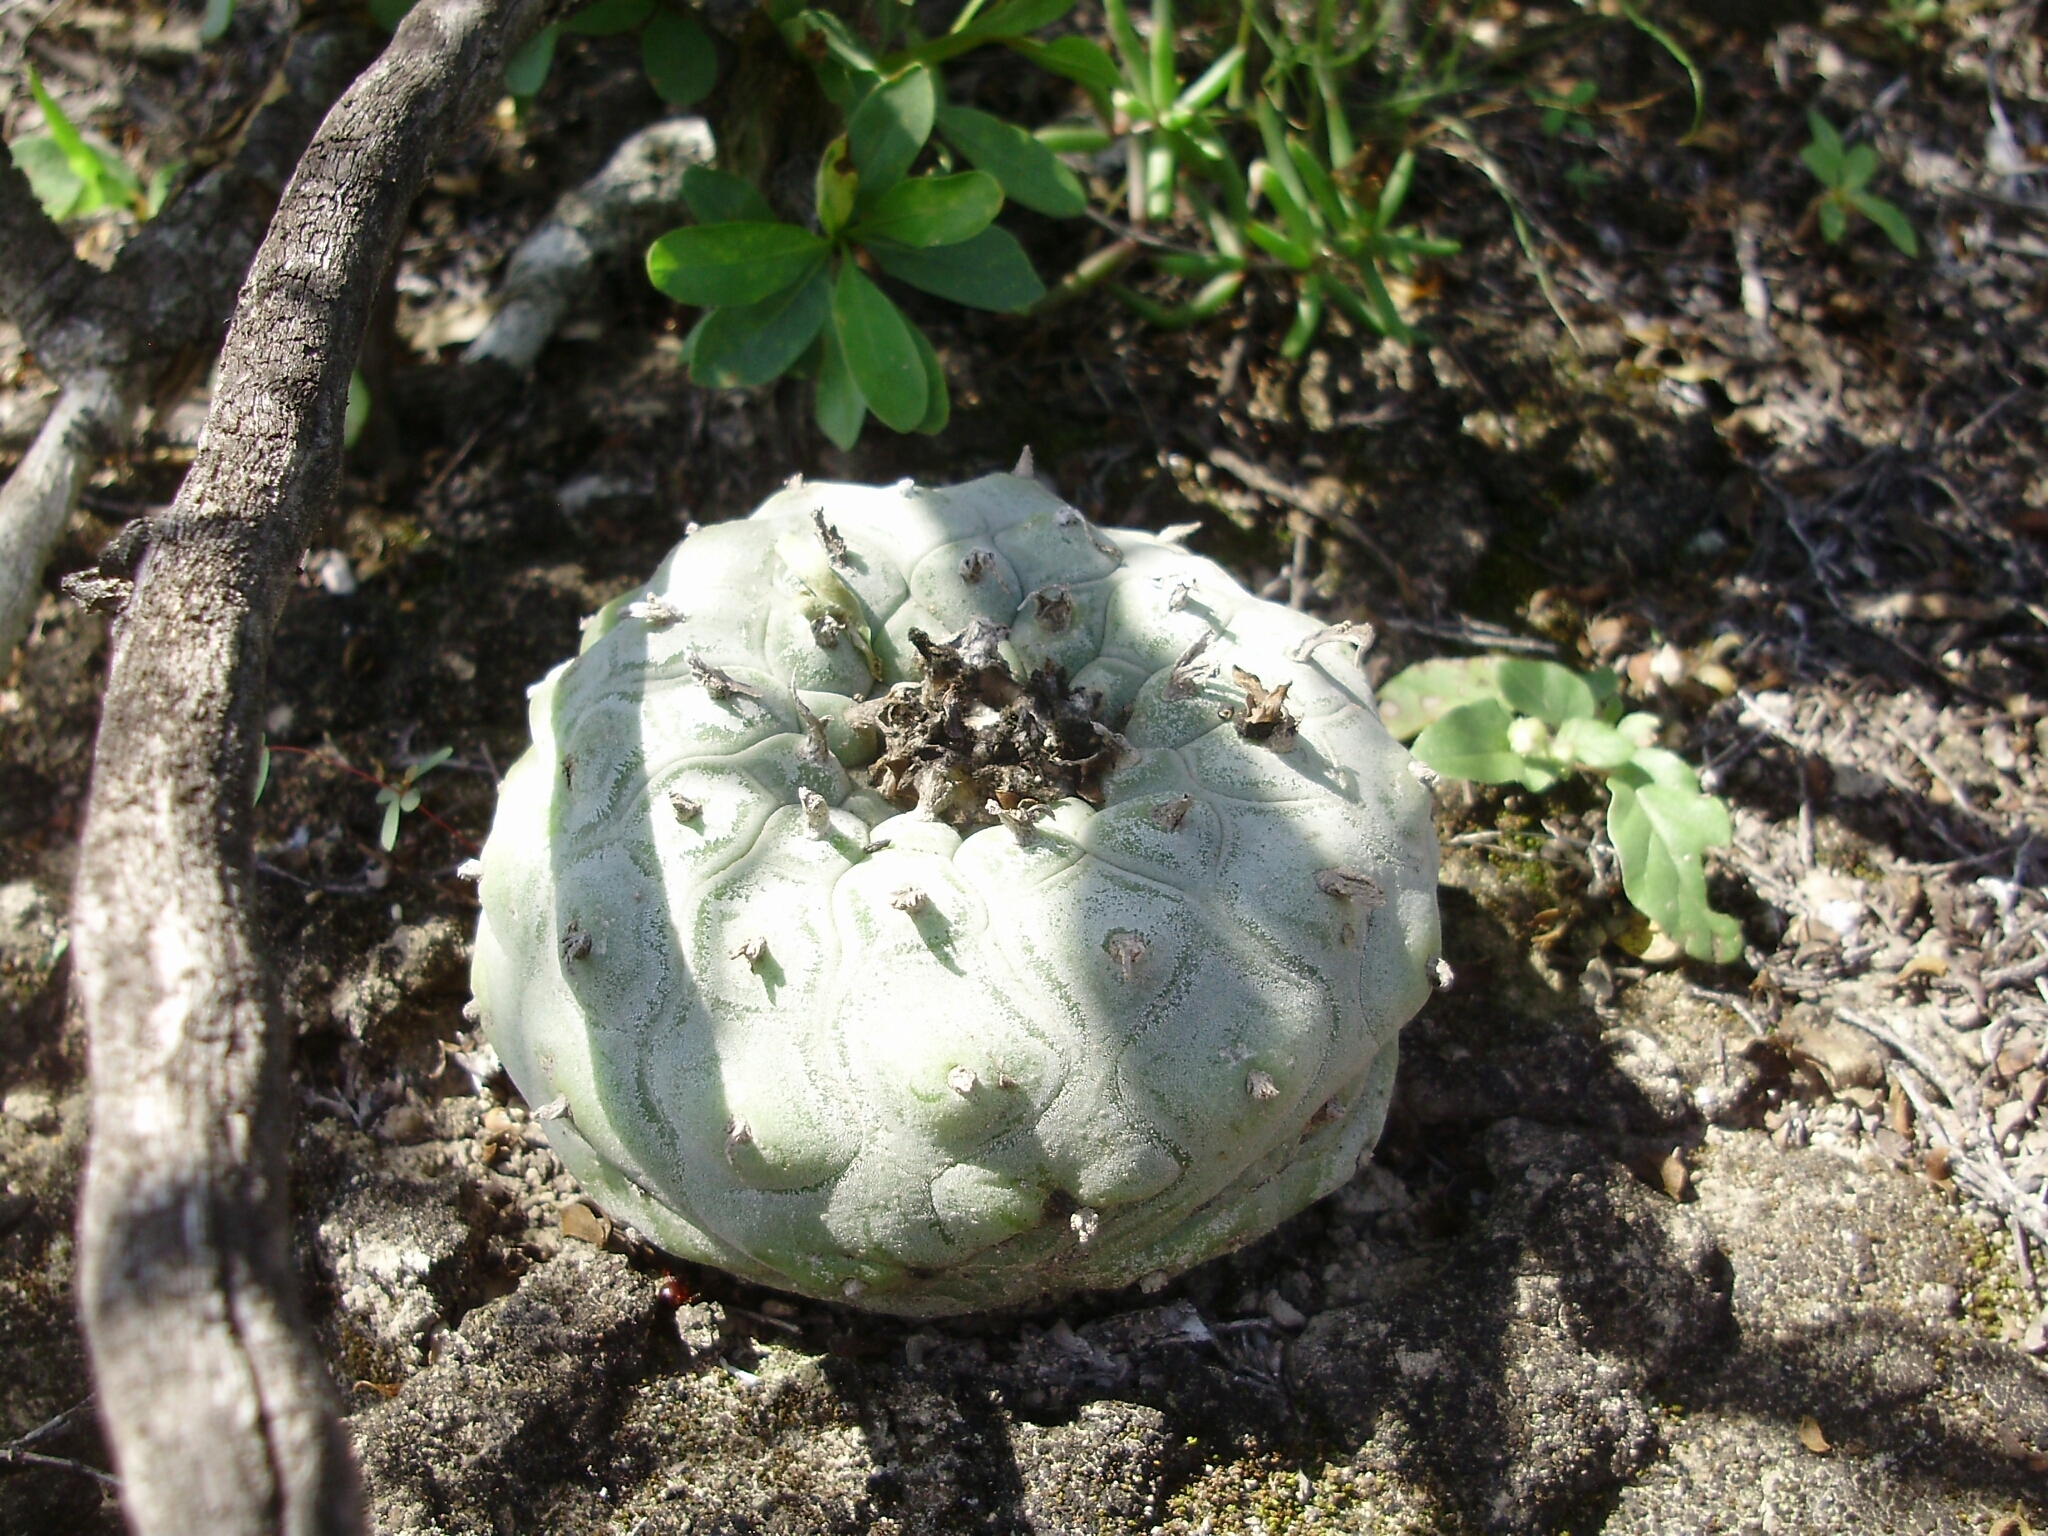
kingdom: Plantae
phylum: Tracheophyta
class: Magnoliopsida
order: Caryophyllales
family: Cactaceae
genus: Lophophora
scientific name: Lophophora diffusa
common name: Peyote
